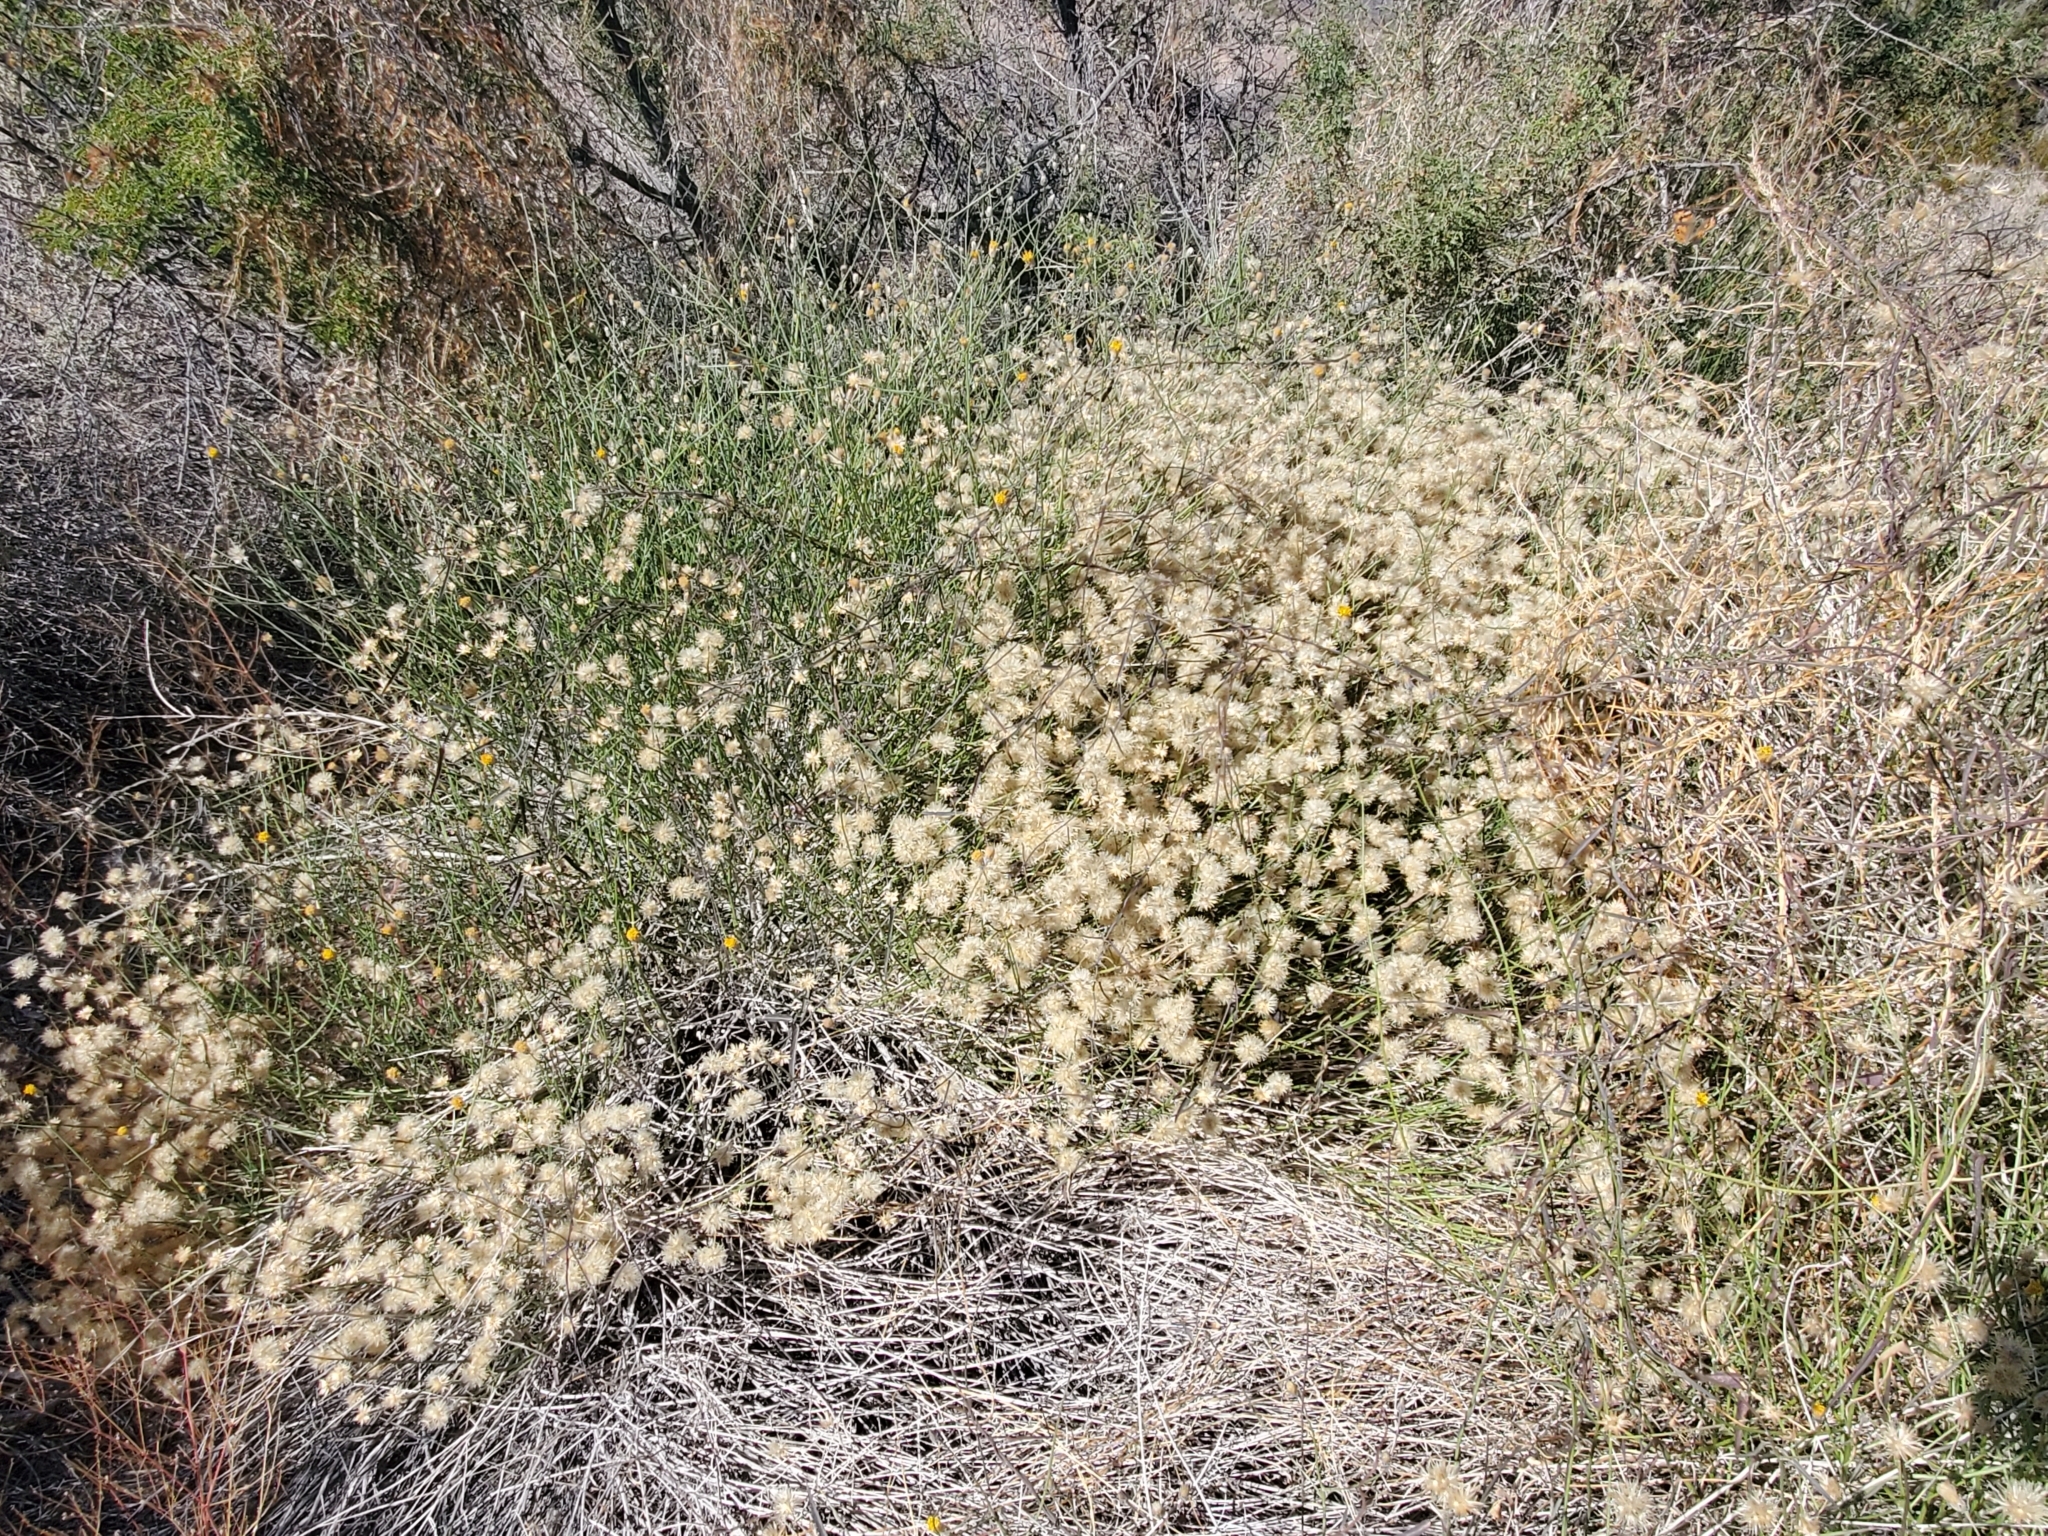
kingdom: Plantae
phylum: Tracheophyta
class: Magnoliopsida
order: Asterales
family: Asteraceae
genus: Bebbia
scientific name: Bebbia juncea
